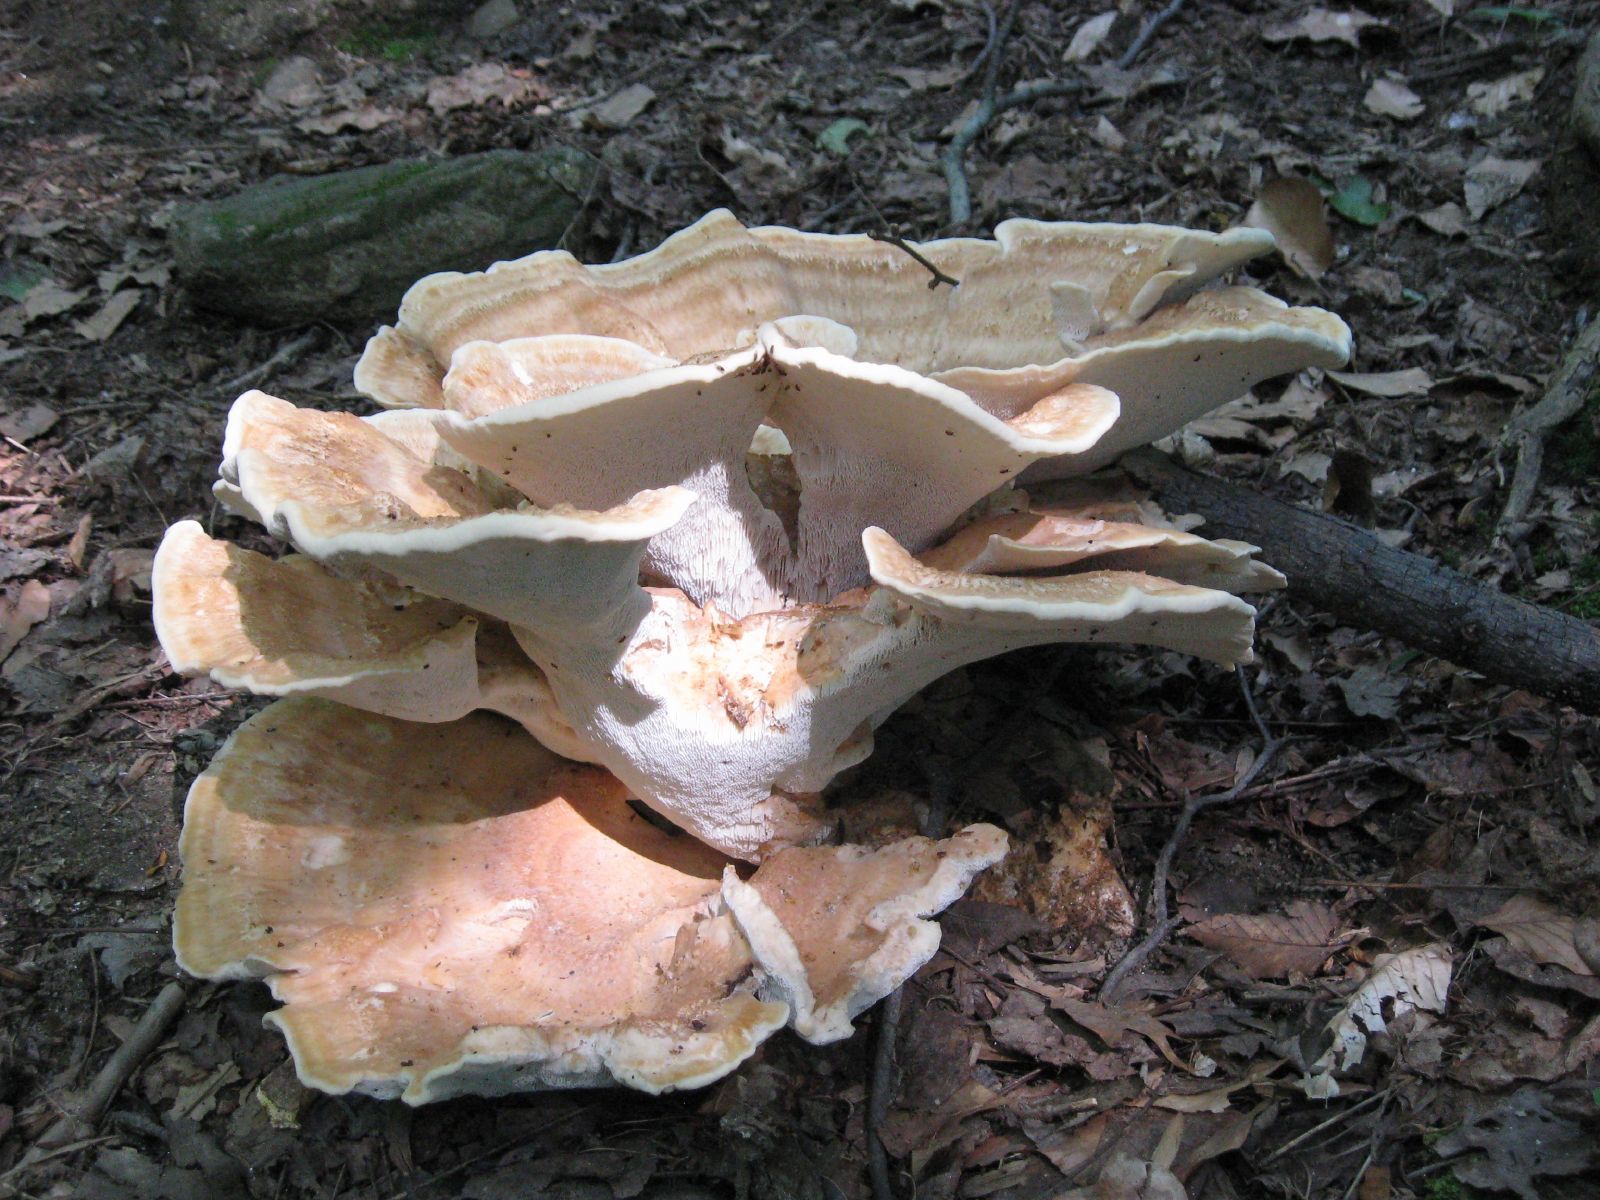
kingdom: Fungi
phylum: Basidiomycota
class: Agaricomycetes
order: Russulales
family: Bondarzewiaceae
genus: Bondarzewia
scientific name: Bondarzewia berkeleyi
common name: Berkeley's polypore
